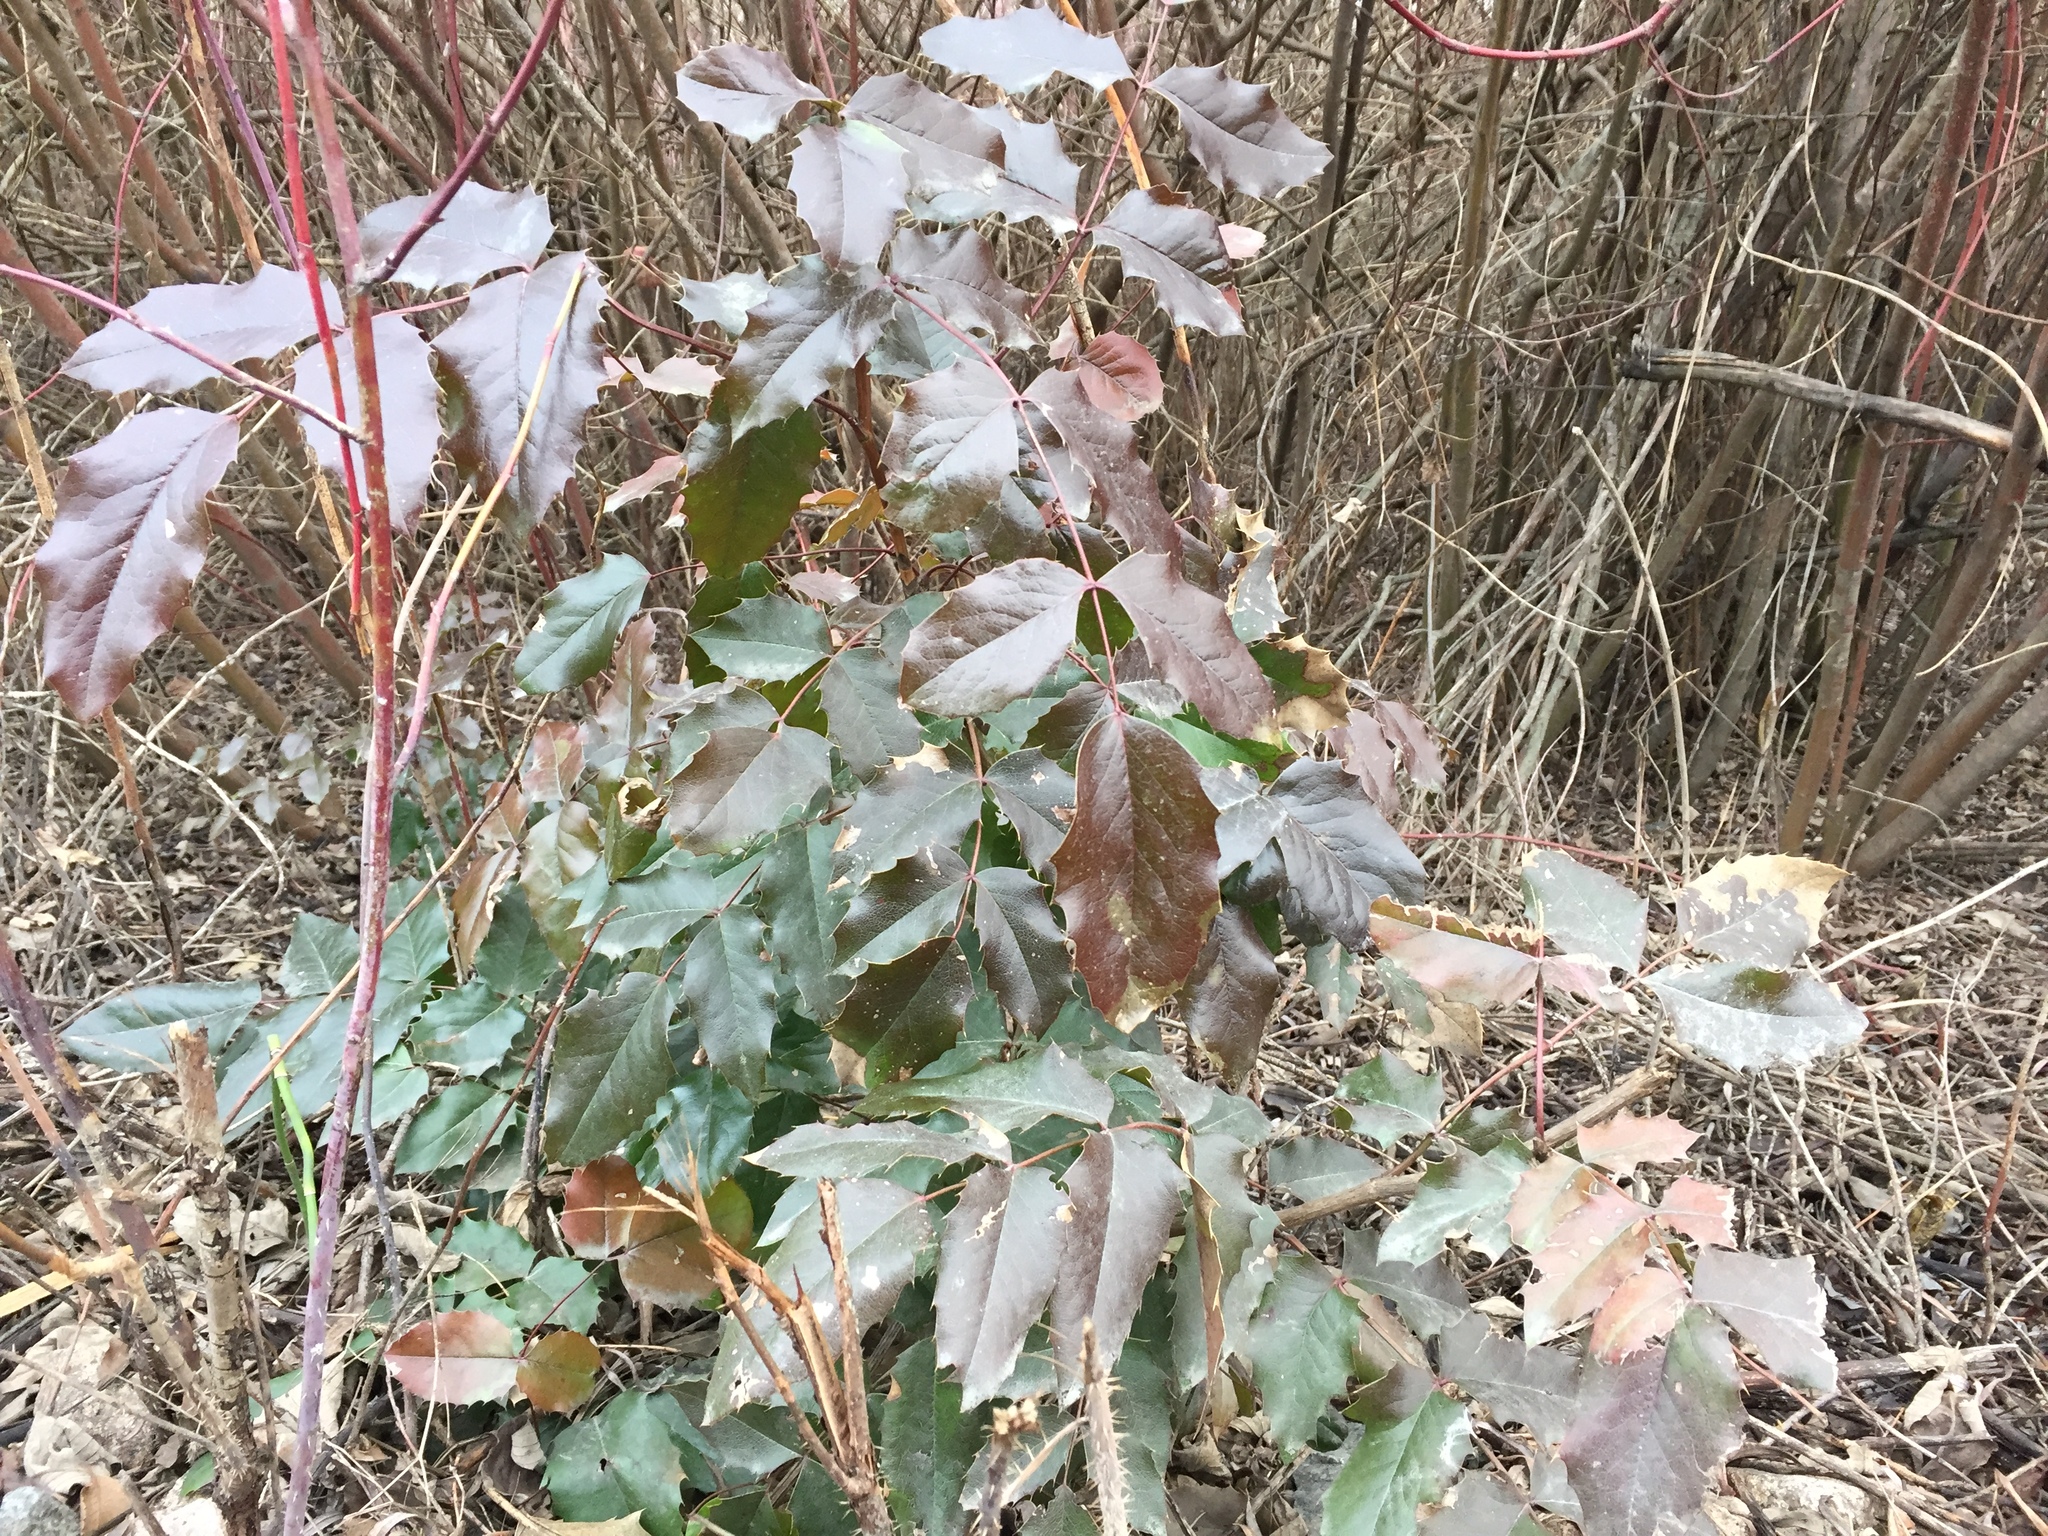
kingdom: Plantae
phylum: Tracheophyta
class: Magnoliopsida
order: Ranunculales
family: Berberidaceae
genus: Mahonia
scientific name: Mahonia aquifolium
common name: Oregon-grape
